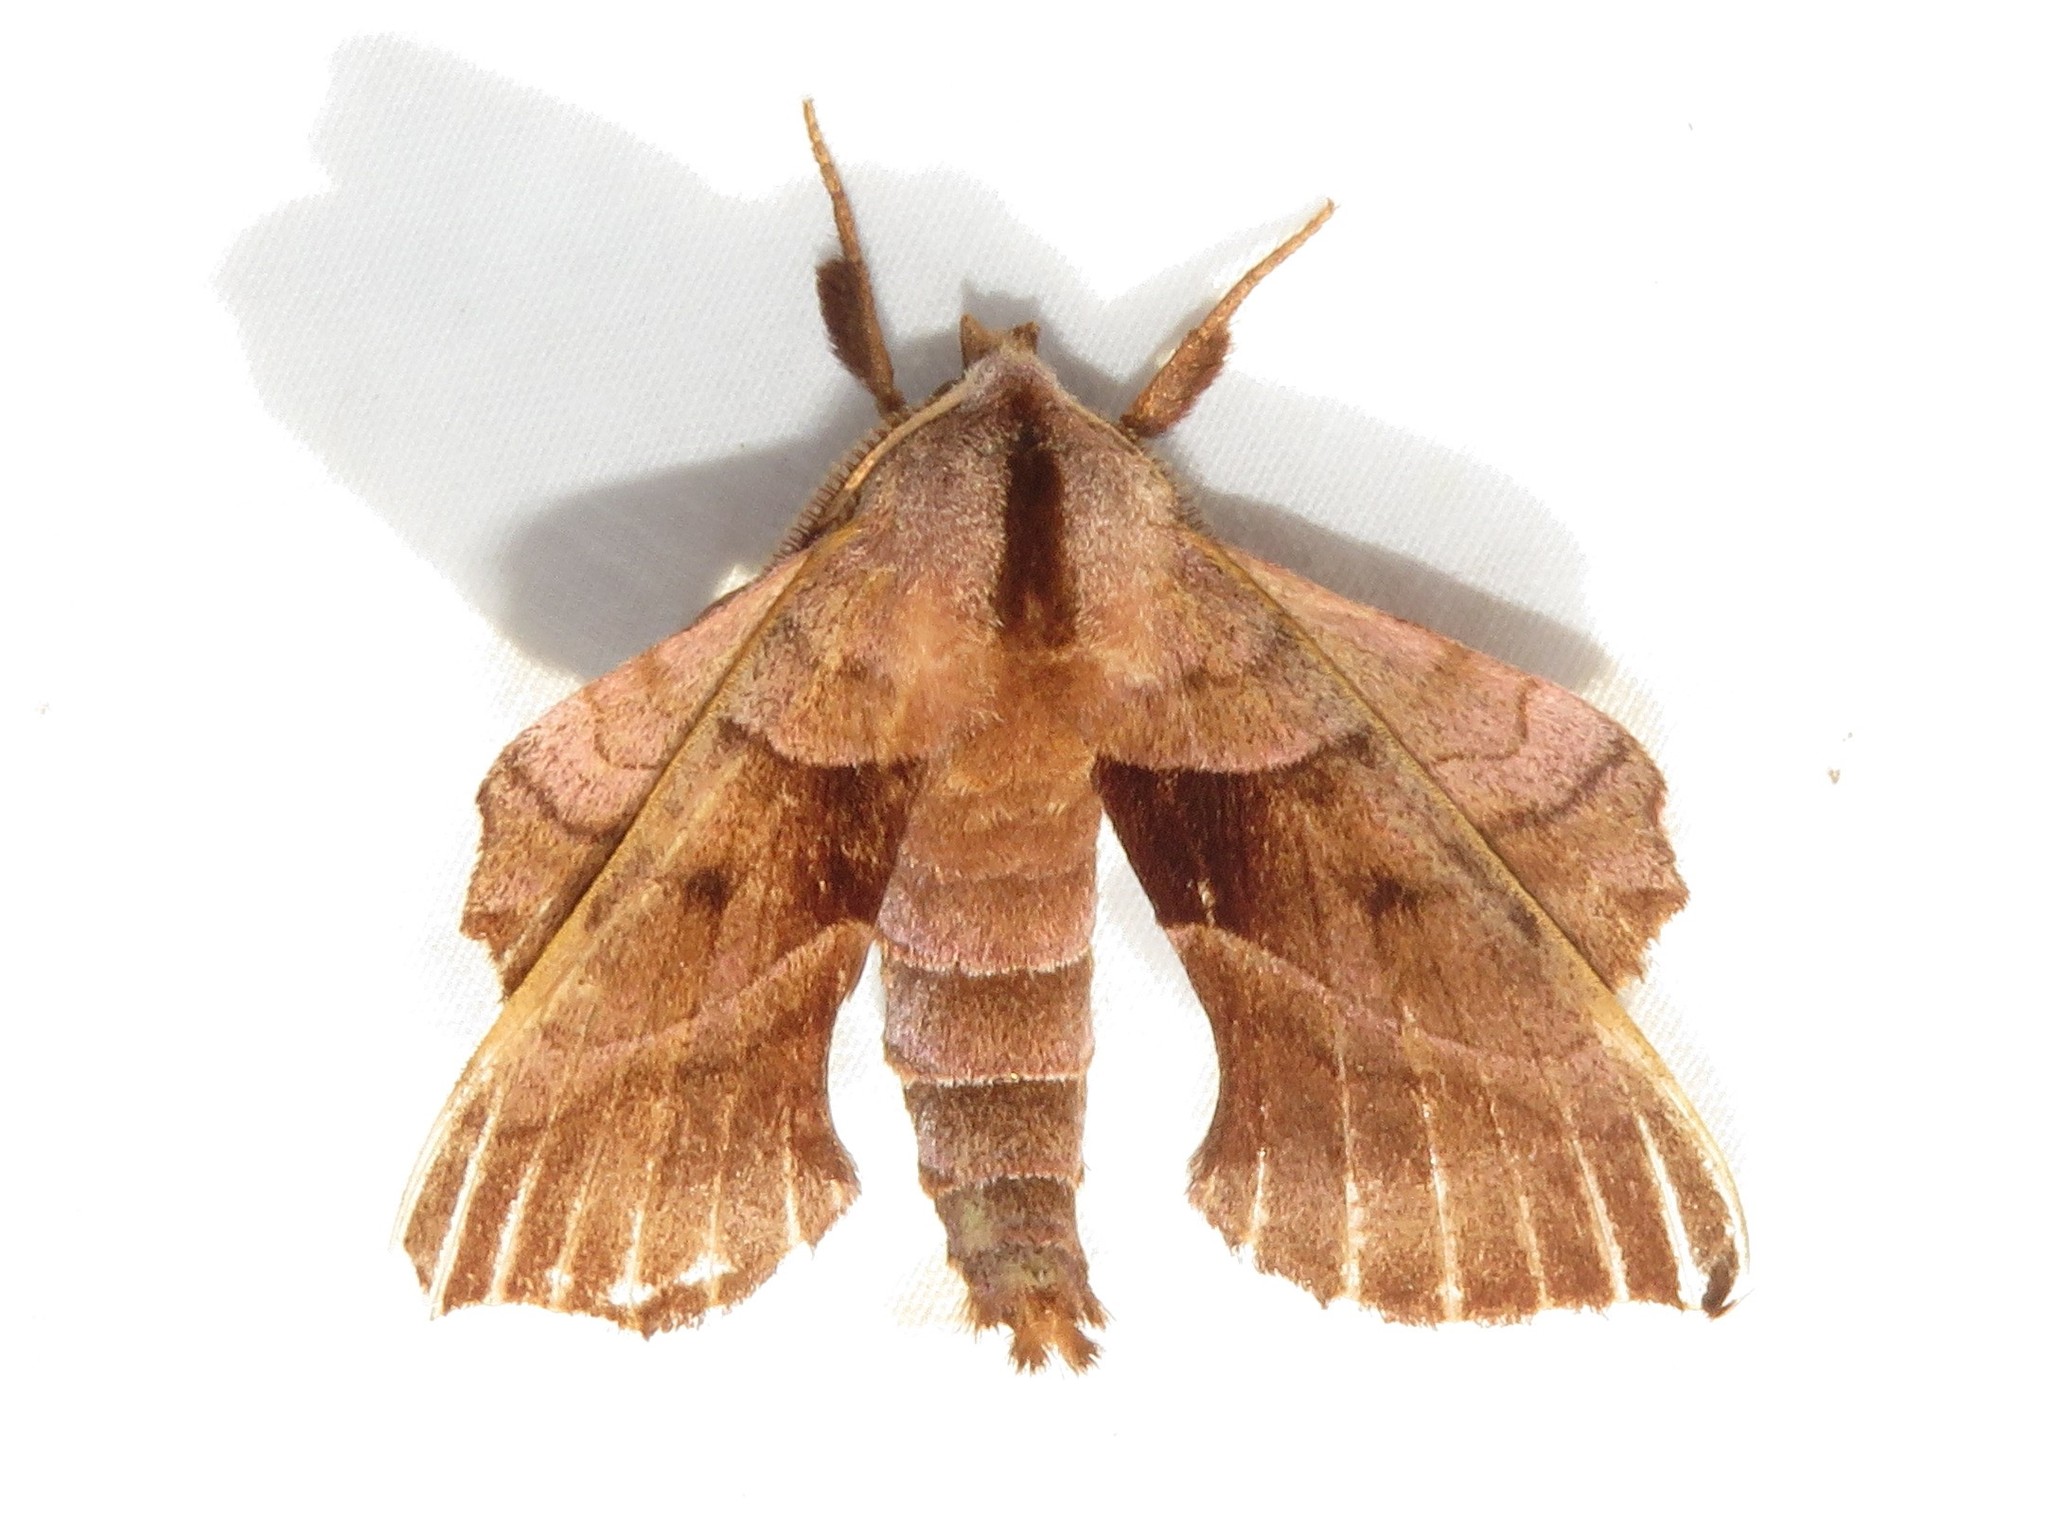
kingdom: Animalia
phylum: Arthropoda
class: Insecta
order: Lepidoptera
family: Sphingidae
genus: Amorpha
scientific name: Amorpha juglandis
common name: Walnut sphinx
